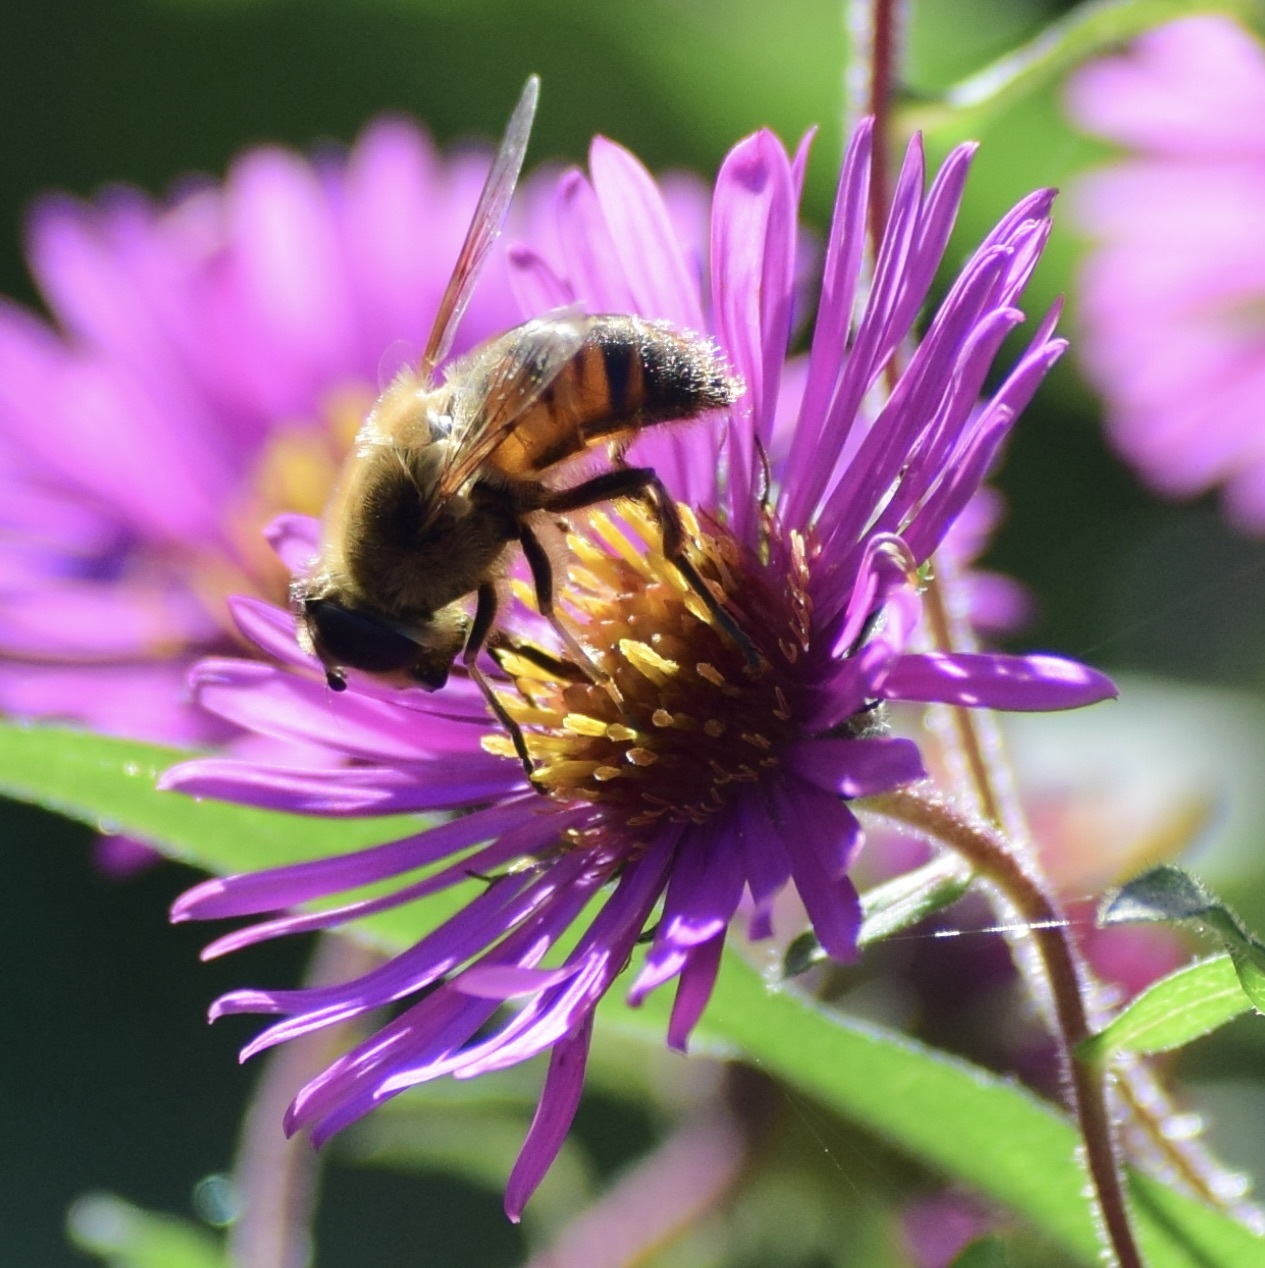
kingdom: Animalia
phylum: Arthropoda
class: Insecta
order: Diptera
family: Syrphidae
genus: Eristalis
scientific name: Eristalis tenax
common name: Drone fly
